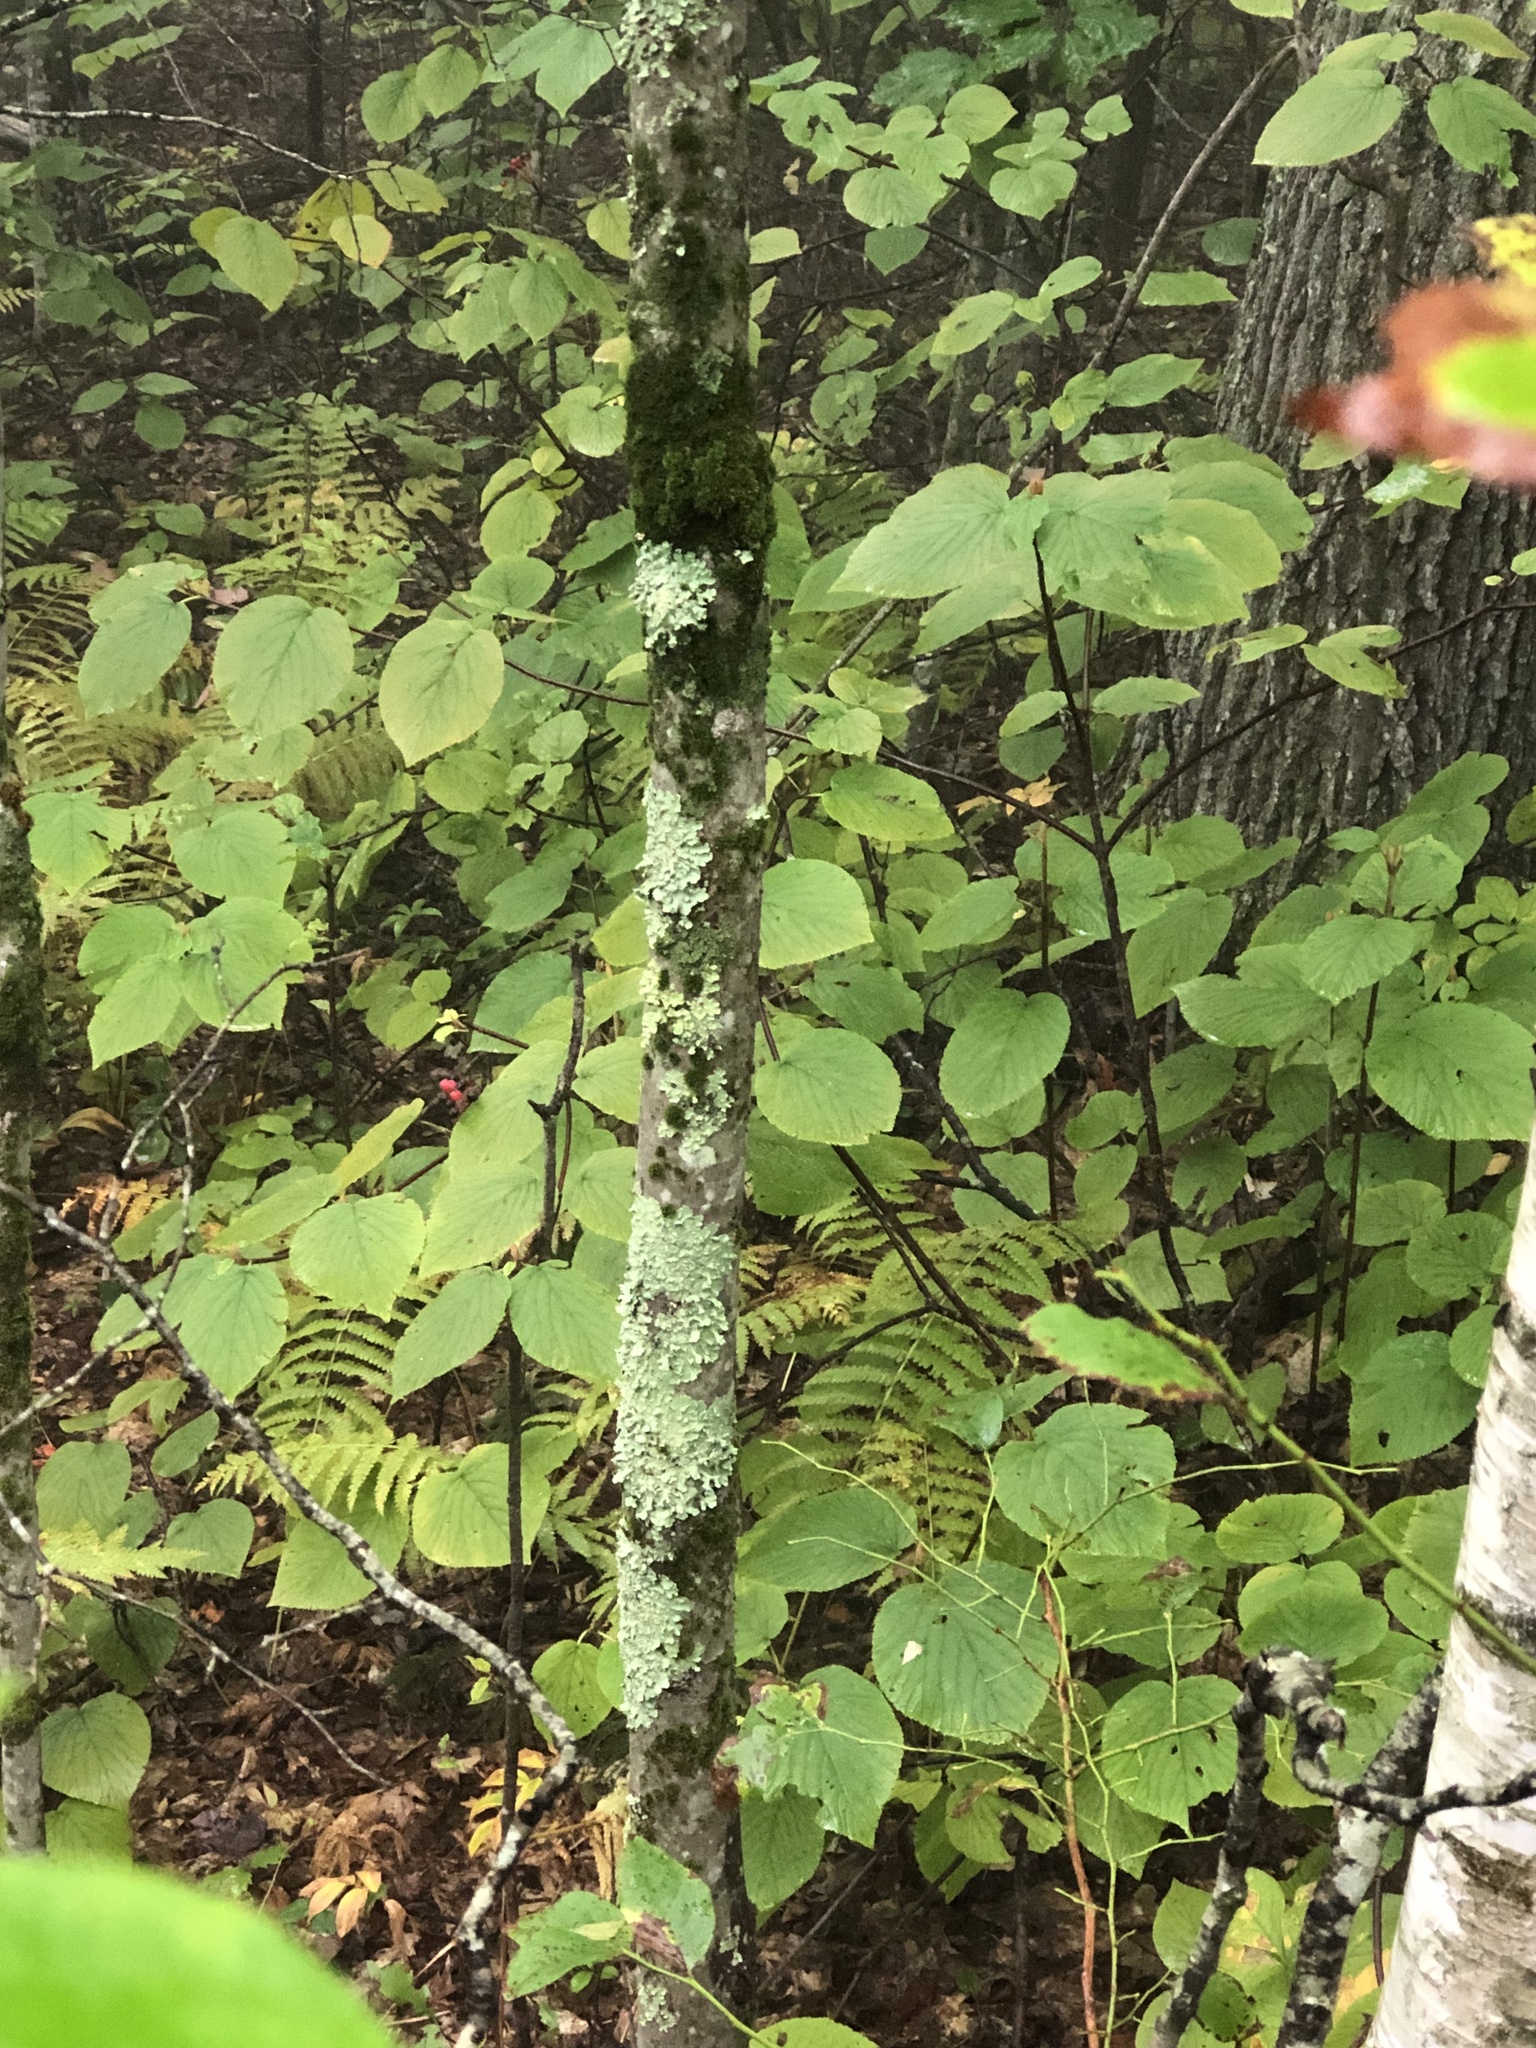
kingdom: Plantae
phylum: Tracheophyta
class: Magnoliopsida
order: Dipsacales
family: Viburnaceae
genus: Viburnum
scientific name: Viburnum lantanoides
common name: Hobblebush
